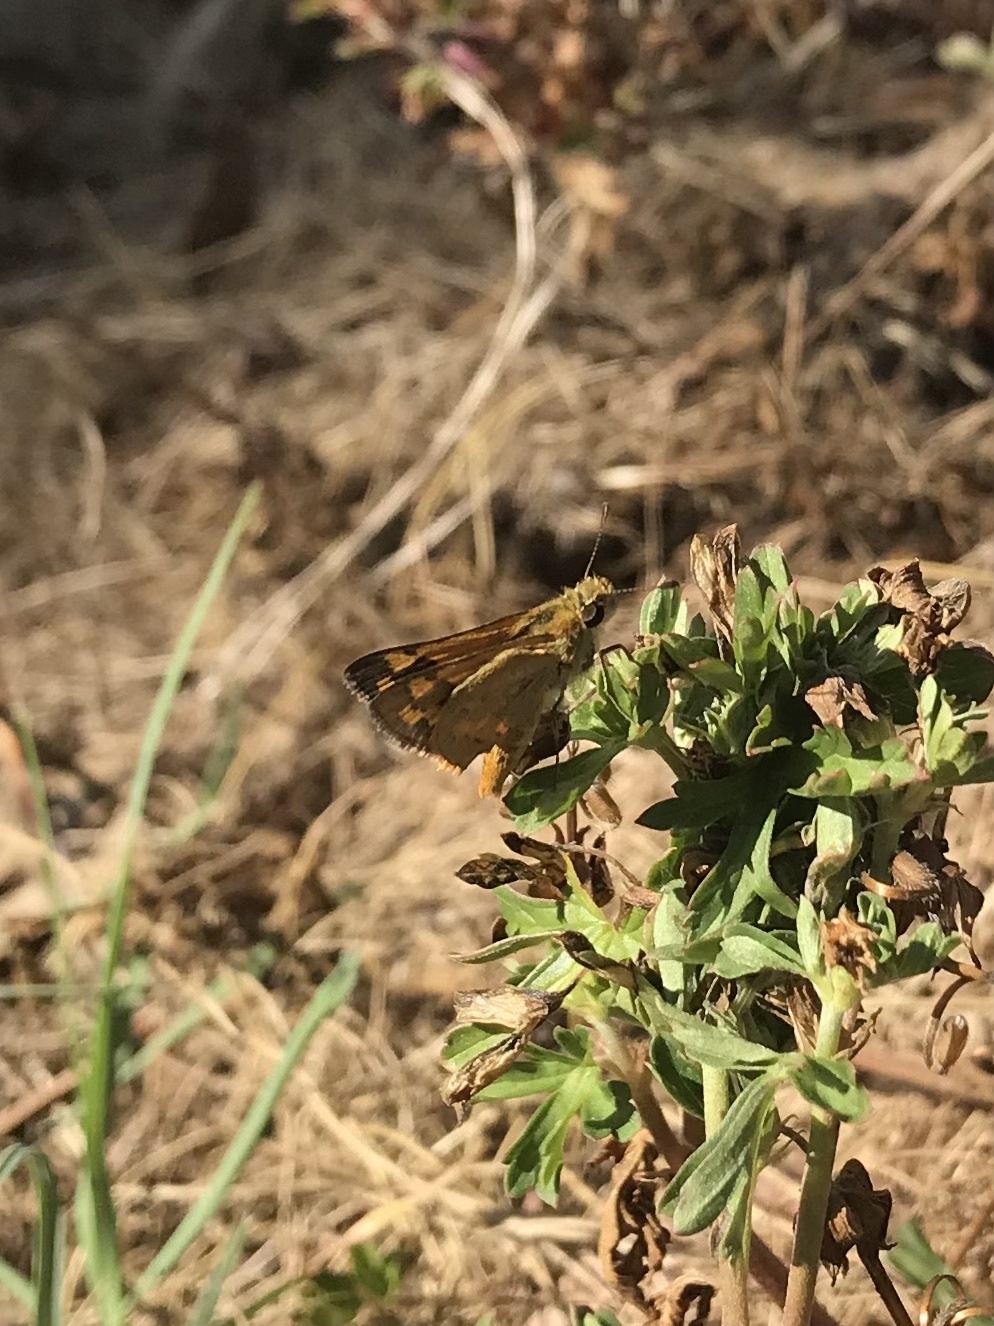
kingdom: Animalia
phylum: Arthropoda
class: Insecta
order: Lepidoptera
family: Hesperiidae
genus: Ocybadistes
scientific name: Ocybadistes walkeri
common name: Yellow-banded dart
